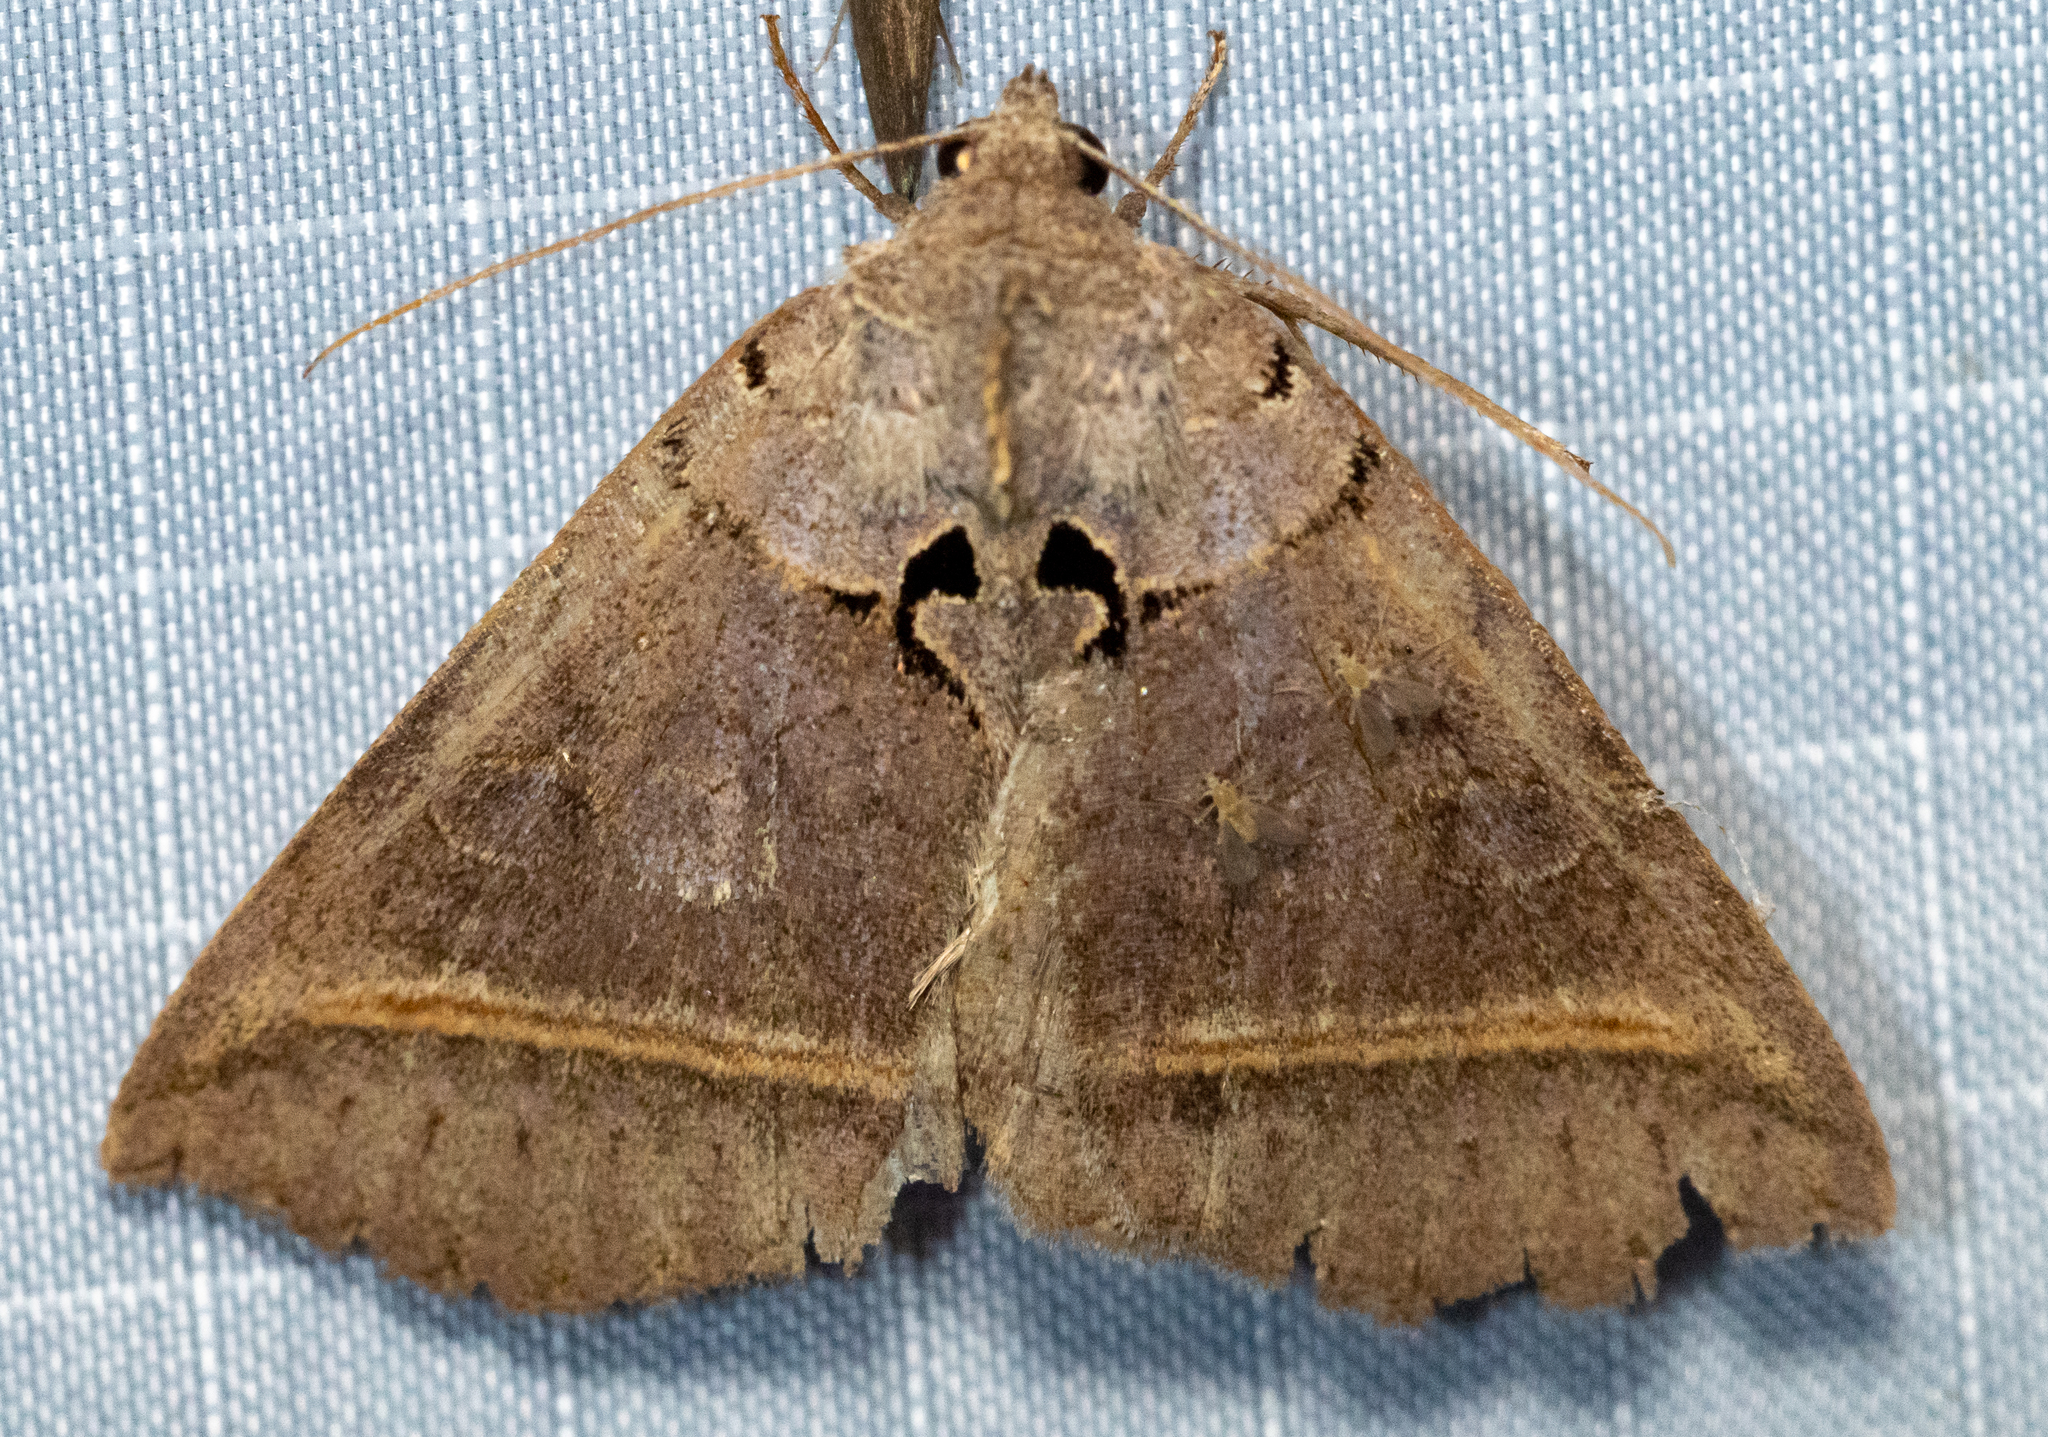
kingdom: Animalia
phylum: Arthropoda
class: Insecta
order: Lepidoptera
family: Erebidae
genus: Celiptera
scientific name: Celiptera frustulum
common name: Black bit moth
